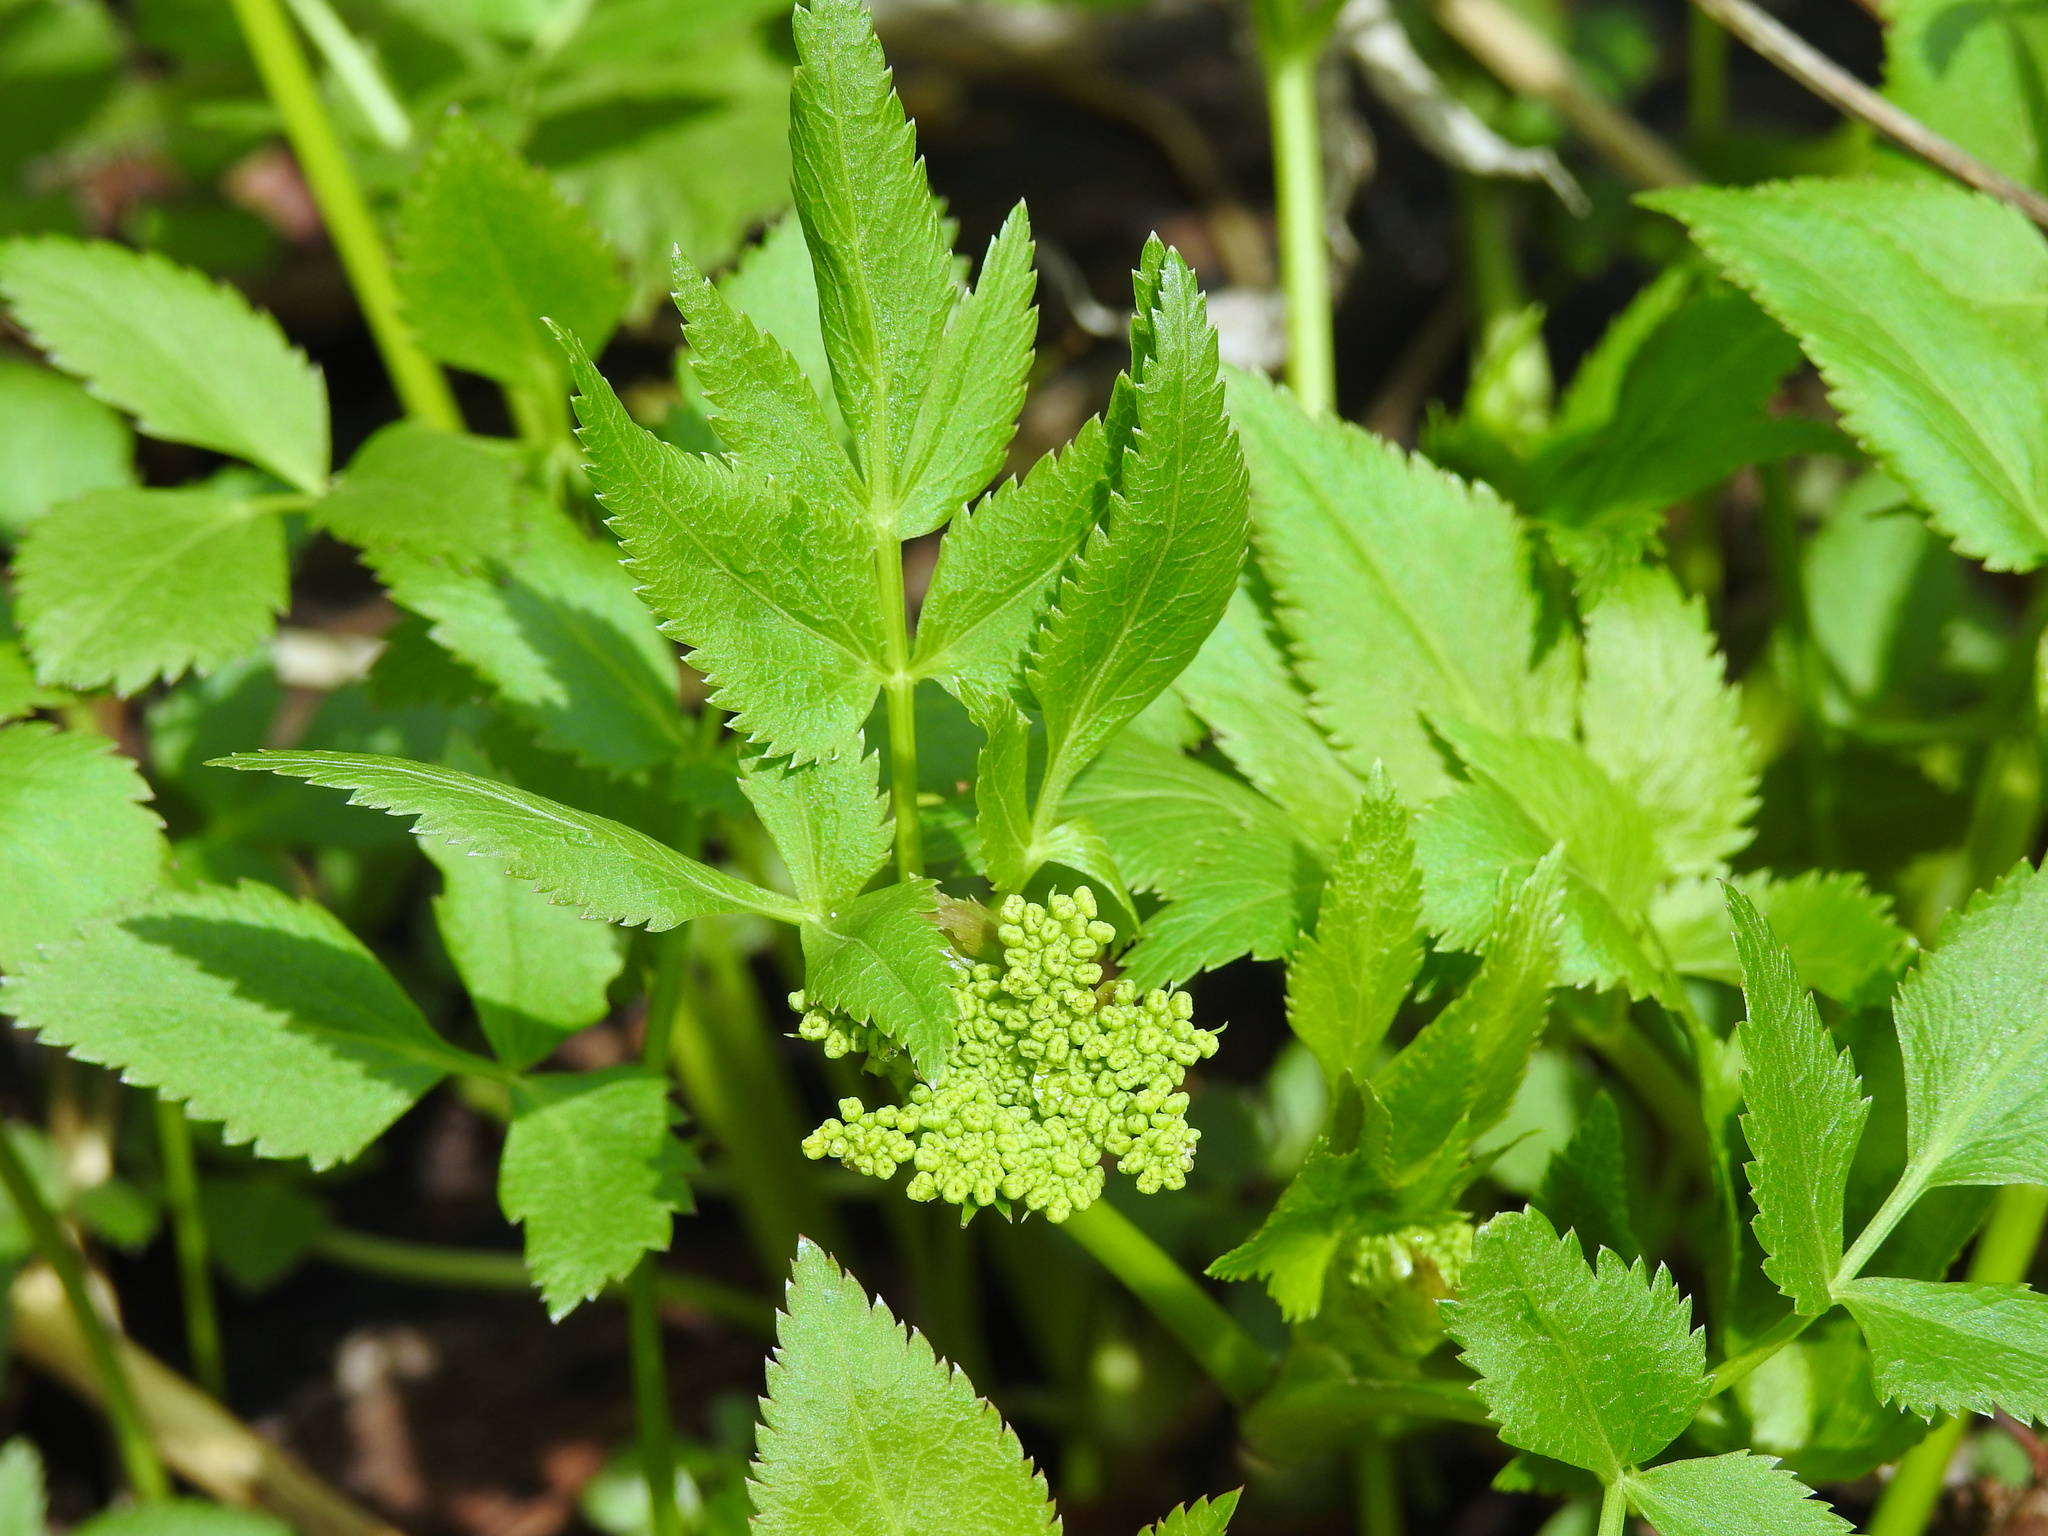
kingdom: Plantae
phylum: Tracheophyta
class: Magnoliopsida
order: Apiales
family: Apiaceae
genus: Zizia
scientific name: Zizia aurea
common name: Golden alexanders
